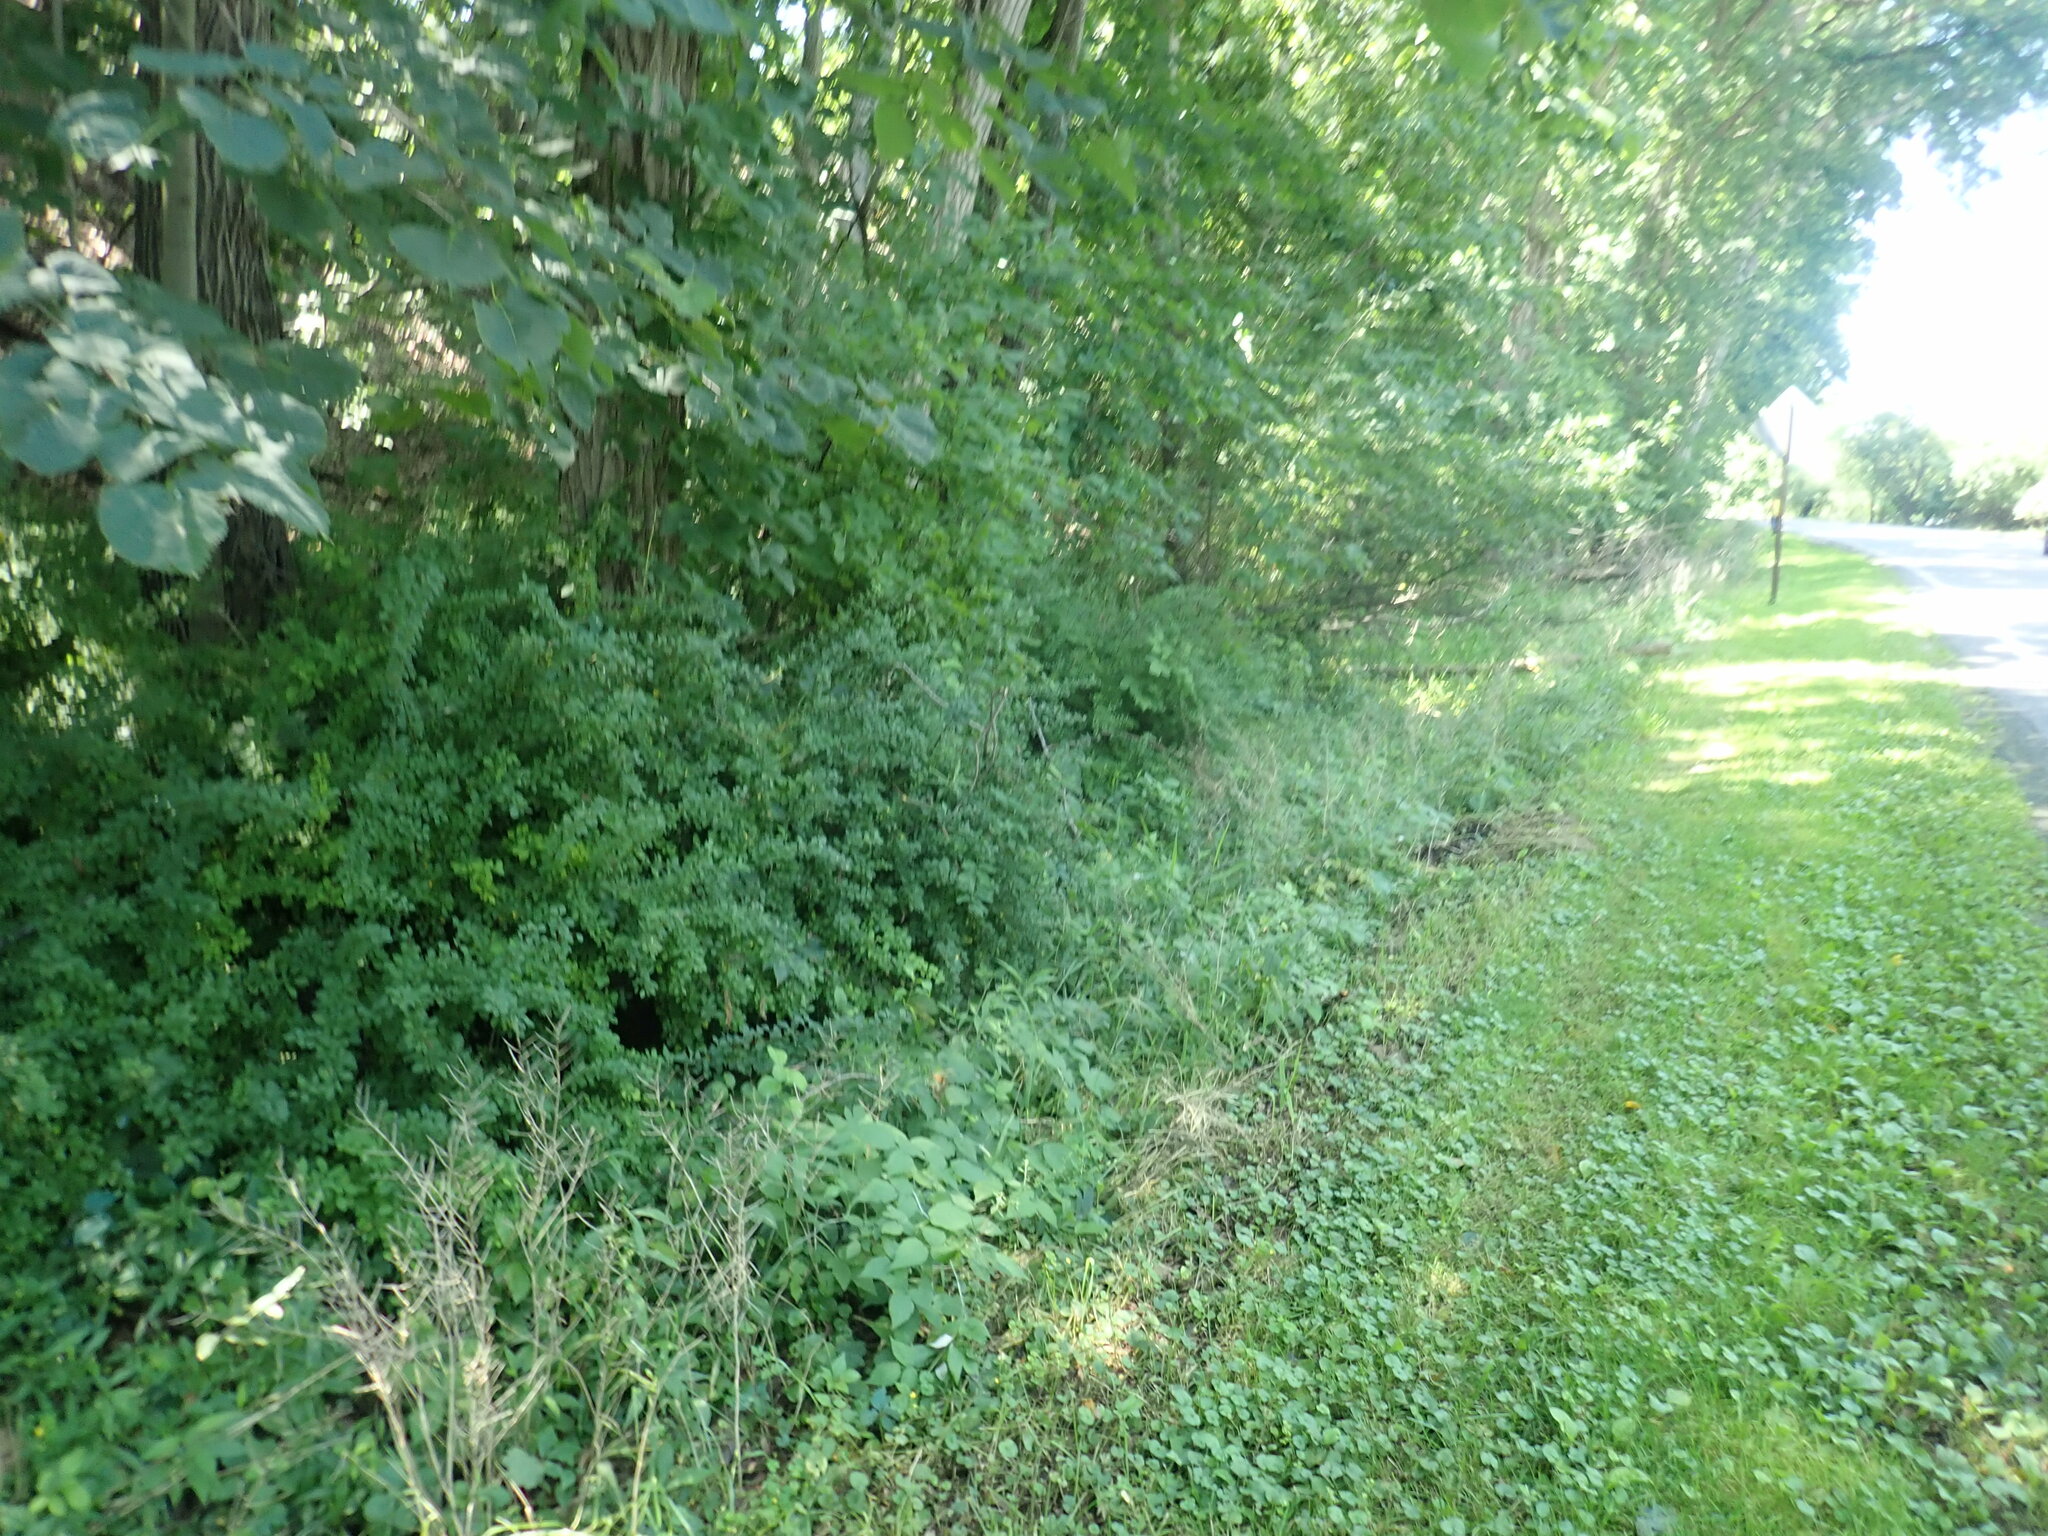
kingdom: Plantae
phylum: Tracheophyta
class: Magnoliopsida
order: Ranunculales
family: Berberidaceae
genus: Berberis
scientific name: Berberis thunbergii
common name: Japanese barberry
